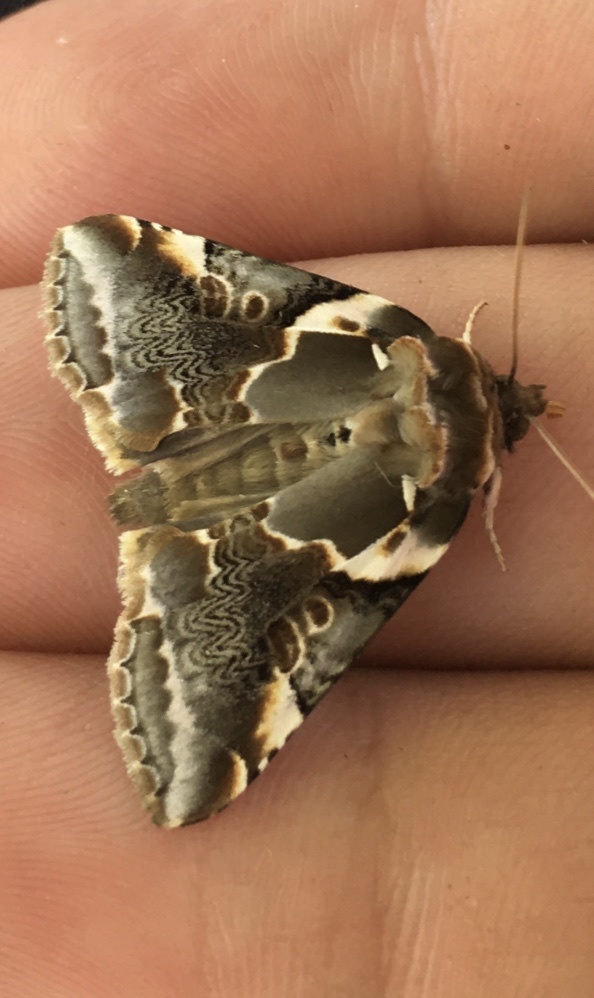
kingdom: Animalia
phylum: Arthropoda
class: Insecta
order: Lepidoptera
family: Drepanidae
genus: Habrosyne
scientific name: Habrosyne gloriosa
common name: Glorious habrosyne moth
